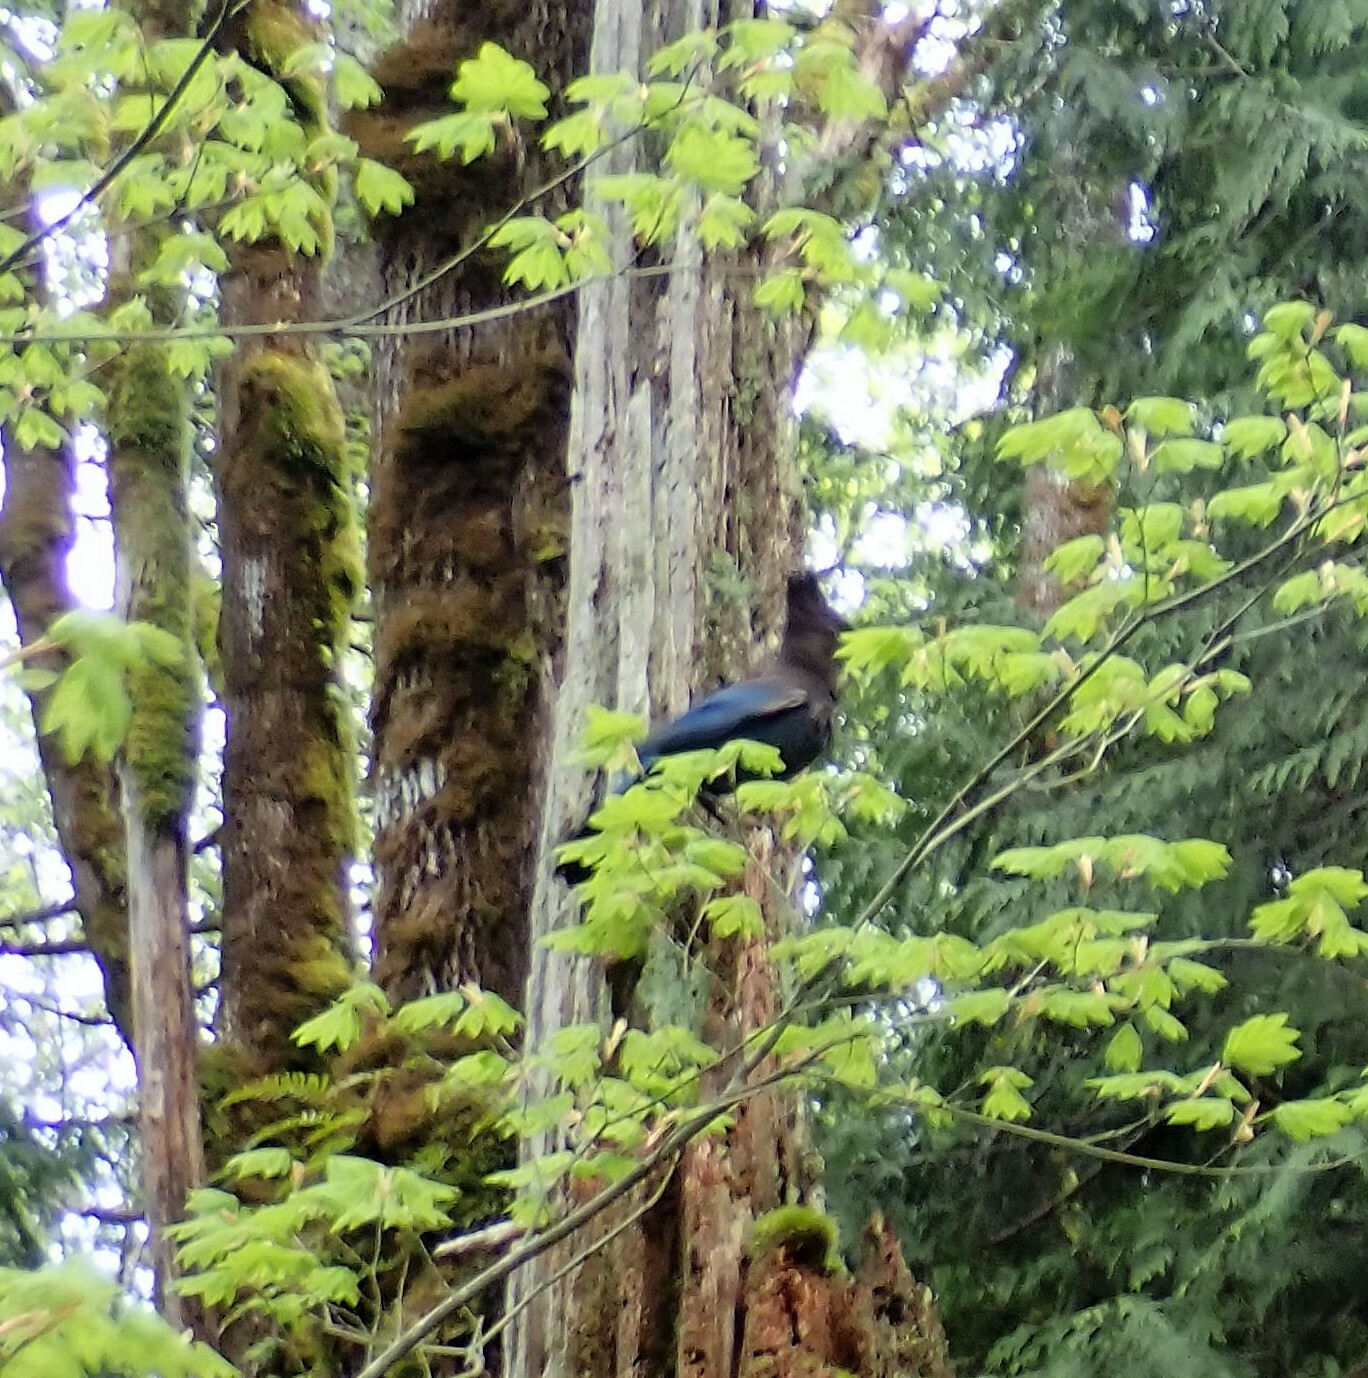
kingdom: Animalia
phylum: Chordata
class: Aves
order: Passeriformes
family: Corvidae
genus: Cyanocitta
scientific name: Cyanocitta stelleri
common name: Steller's jay
